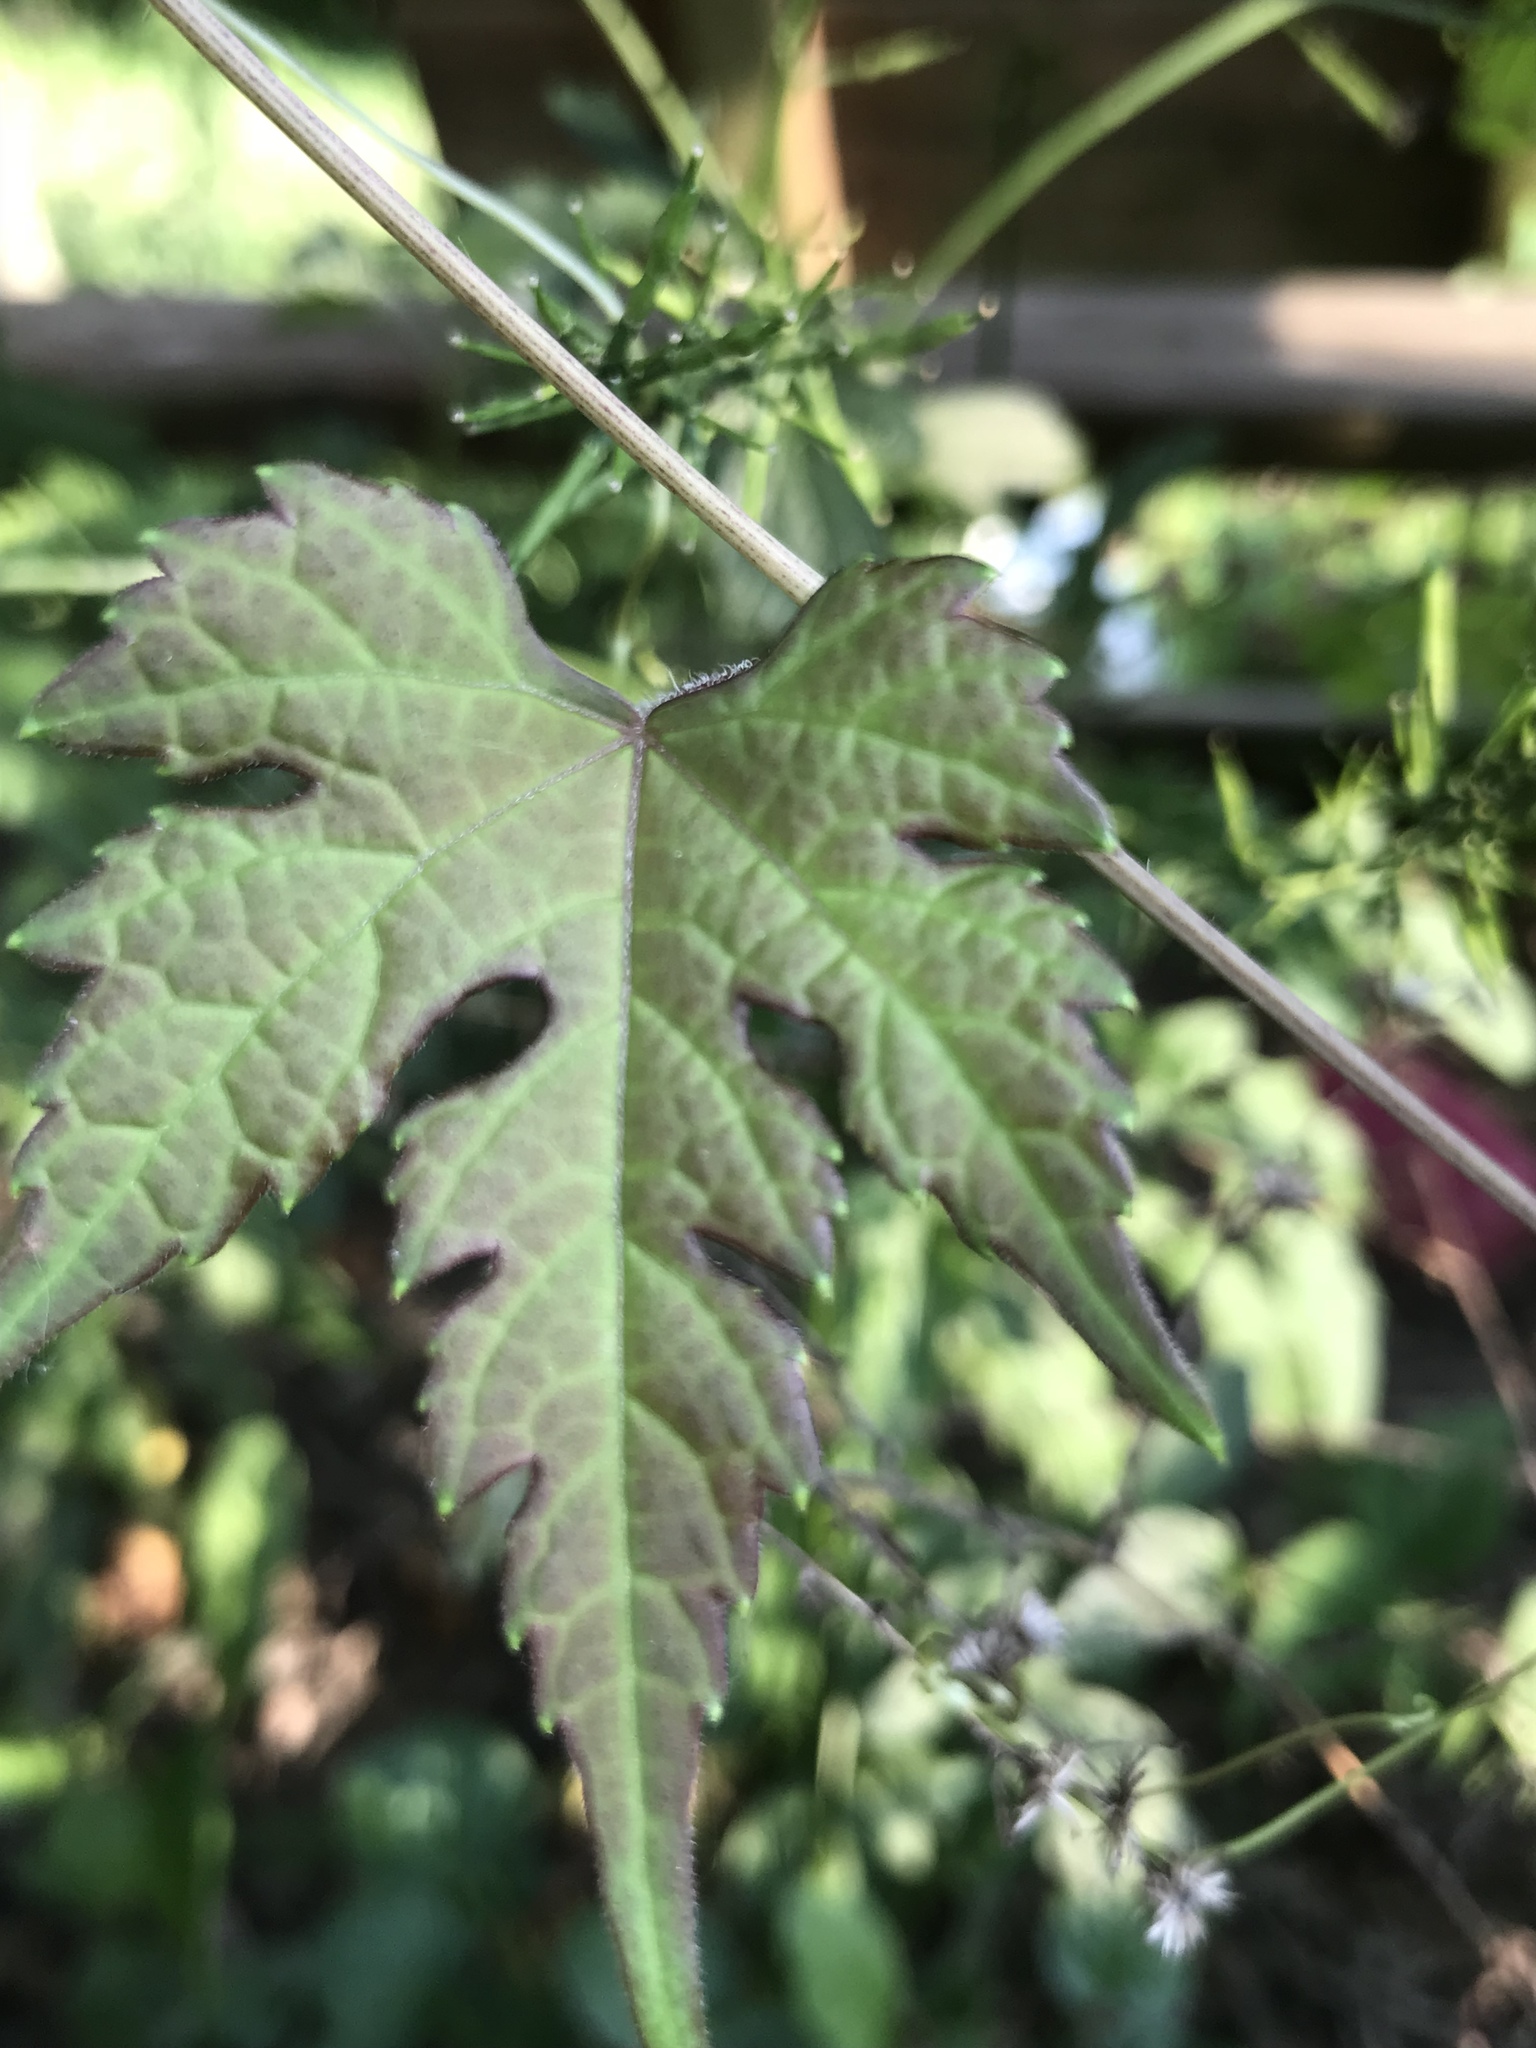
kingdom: Plantae
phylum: Tracheophyta
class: Magnoliopsida
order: Vitales
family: Vitaceae
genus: Ampelopsis
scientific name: Ampelopsis glandulosa
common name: Amur peppervine
